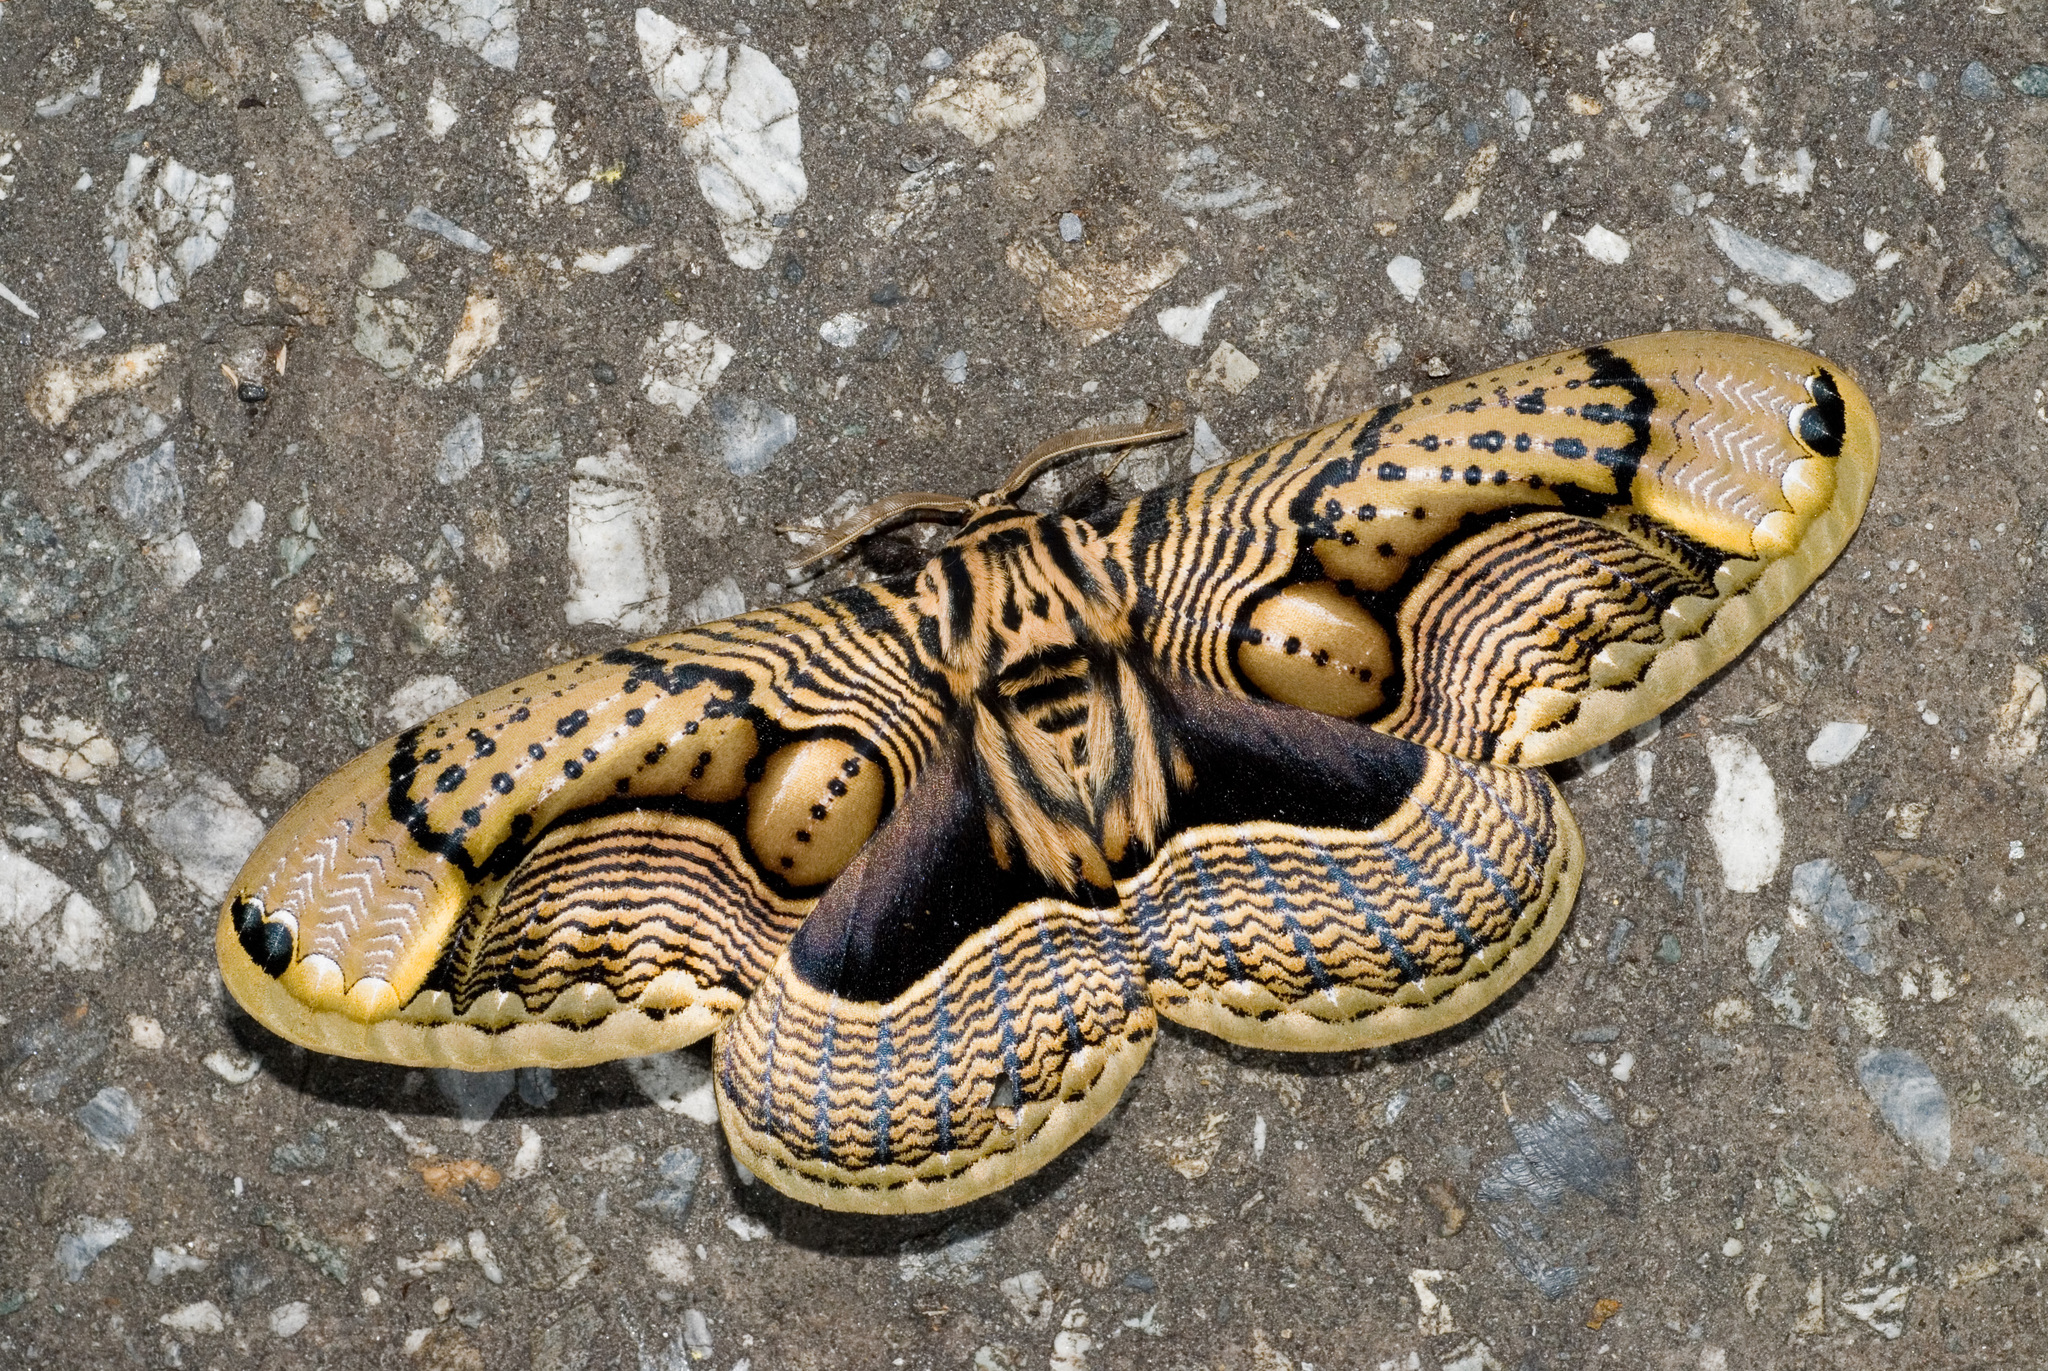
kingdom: Animalia
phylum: Arthropoda
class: Insecta
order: Lepidoptera
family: Brahmaeidae
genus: Brahmaea
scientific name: Brahmaea wallichii
